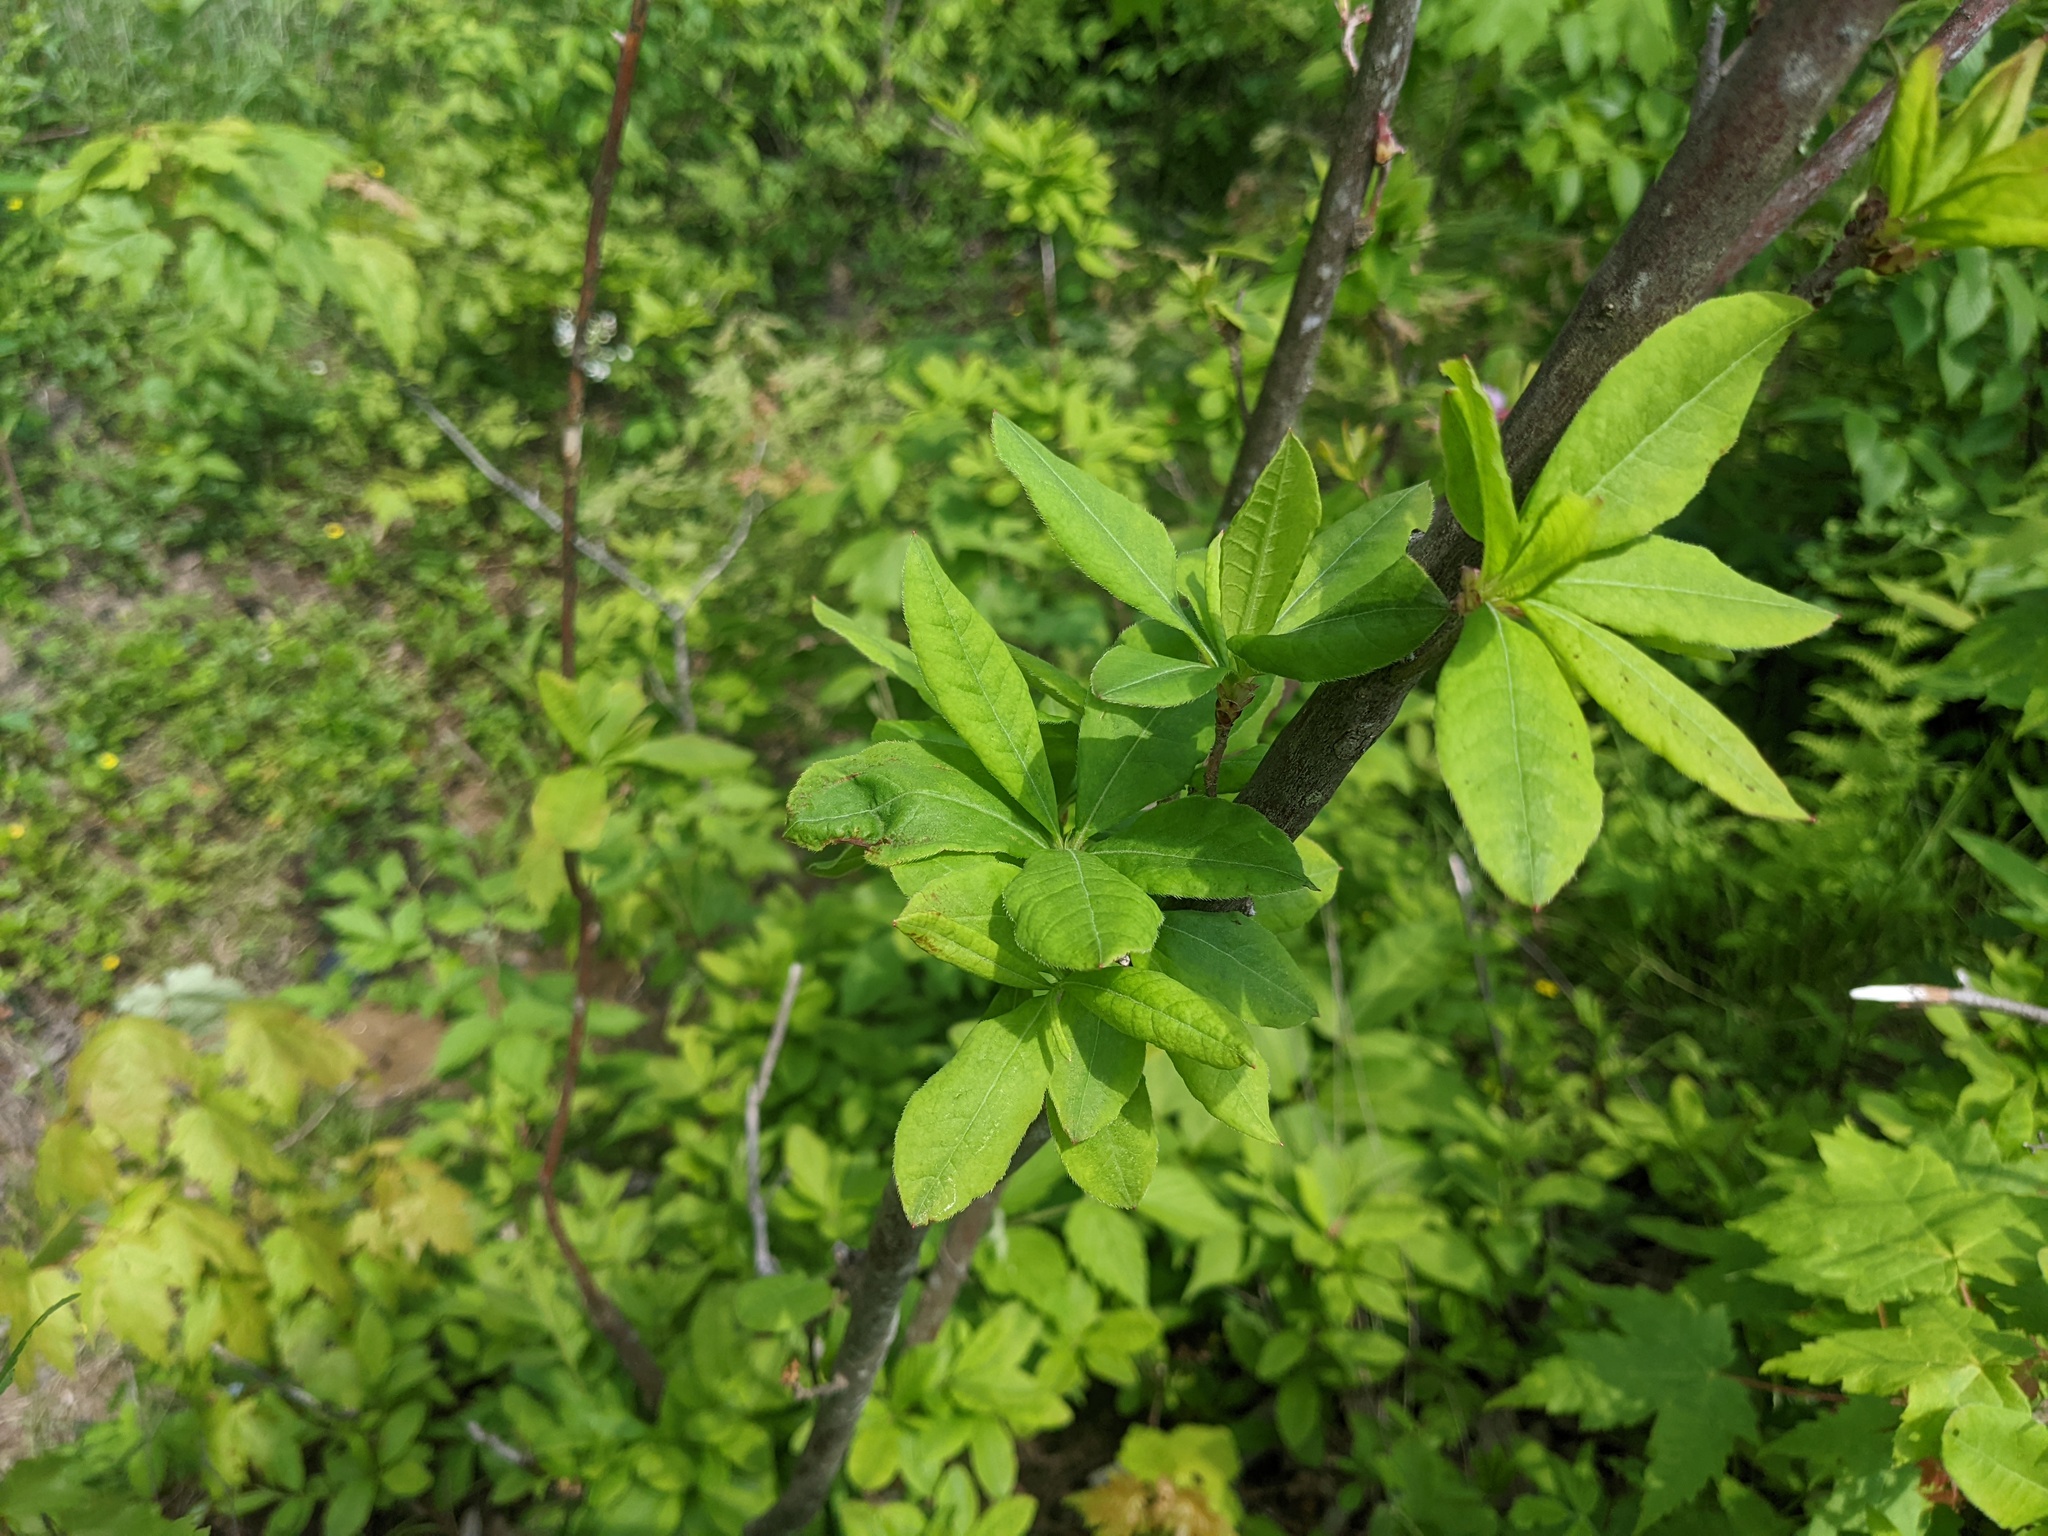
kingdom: Plantae
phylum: Tracheophyta
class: Magnoliopsida
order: Ericales
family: Ericaceae
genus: Rhododendron
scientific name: Rhododendron periclymenoides
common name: Election-pink
